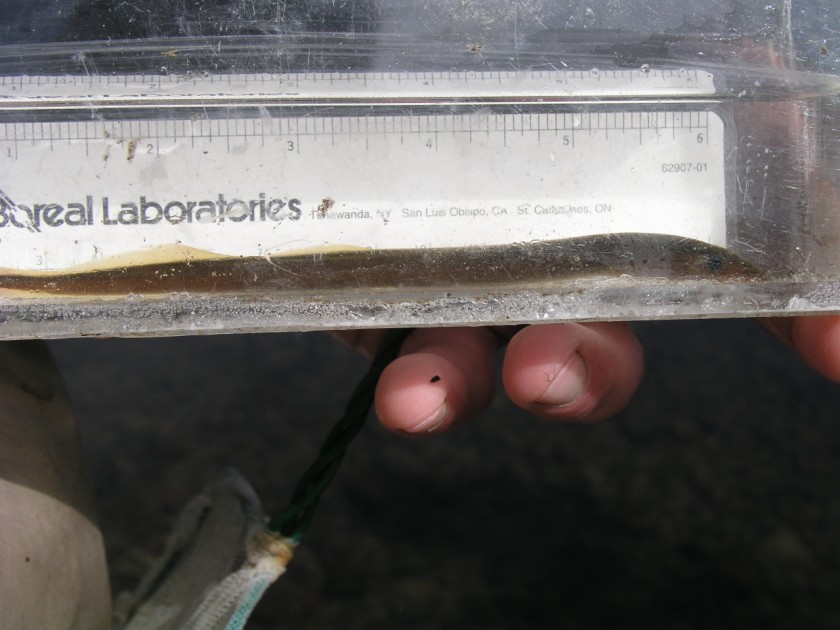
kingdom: Animalia
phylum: Chordata
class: Petromyzonti
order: Petromyzontiformes
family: Petromyzontidae
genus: Lampetra
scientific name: Lampetra richardsoni
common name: Western brook lamprey
